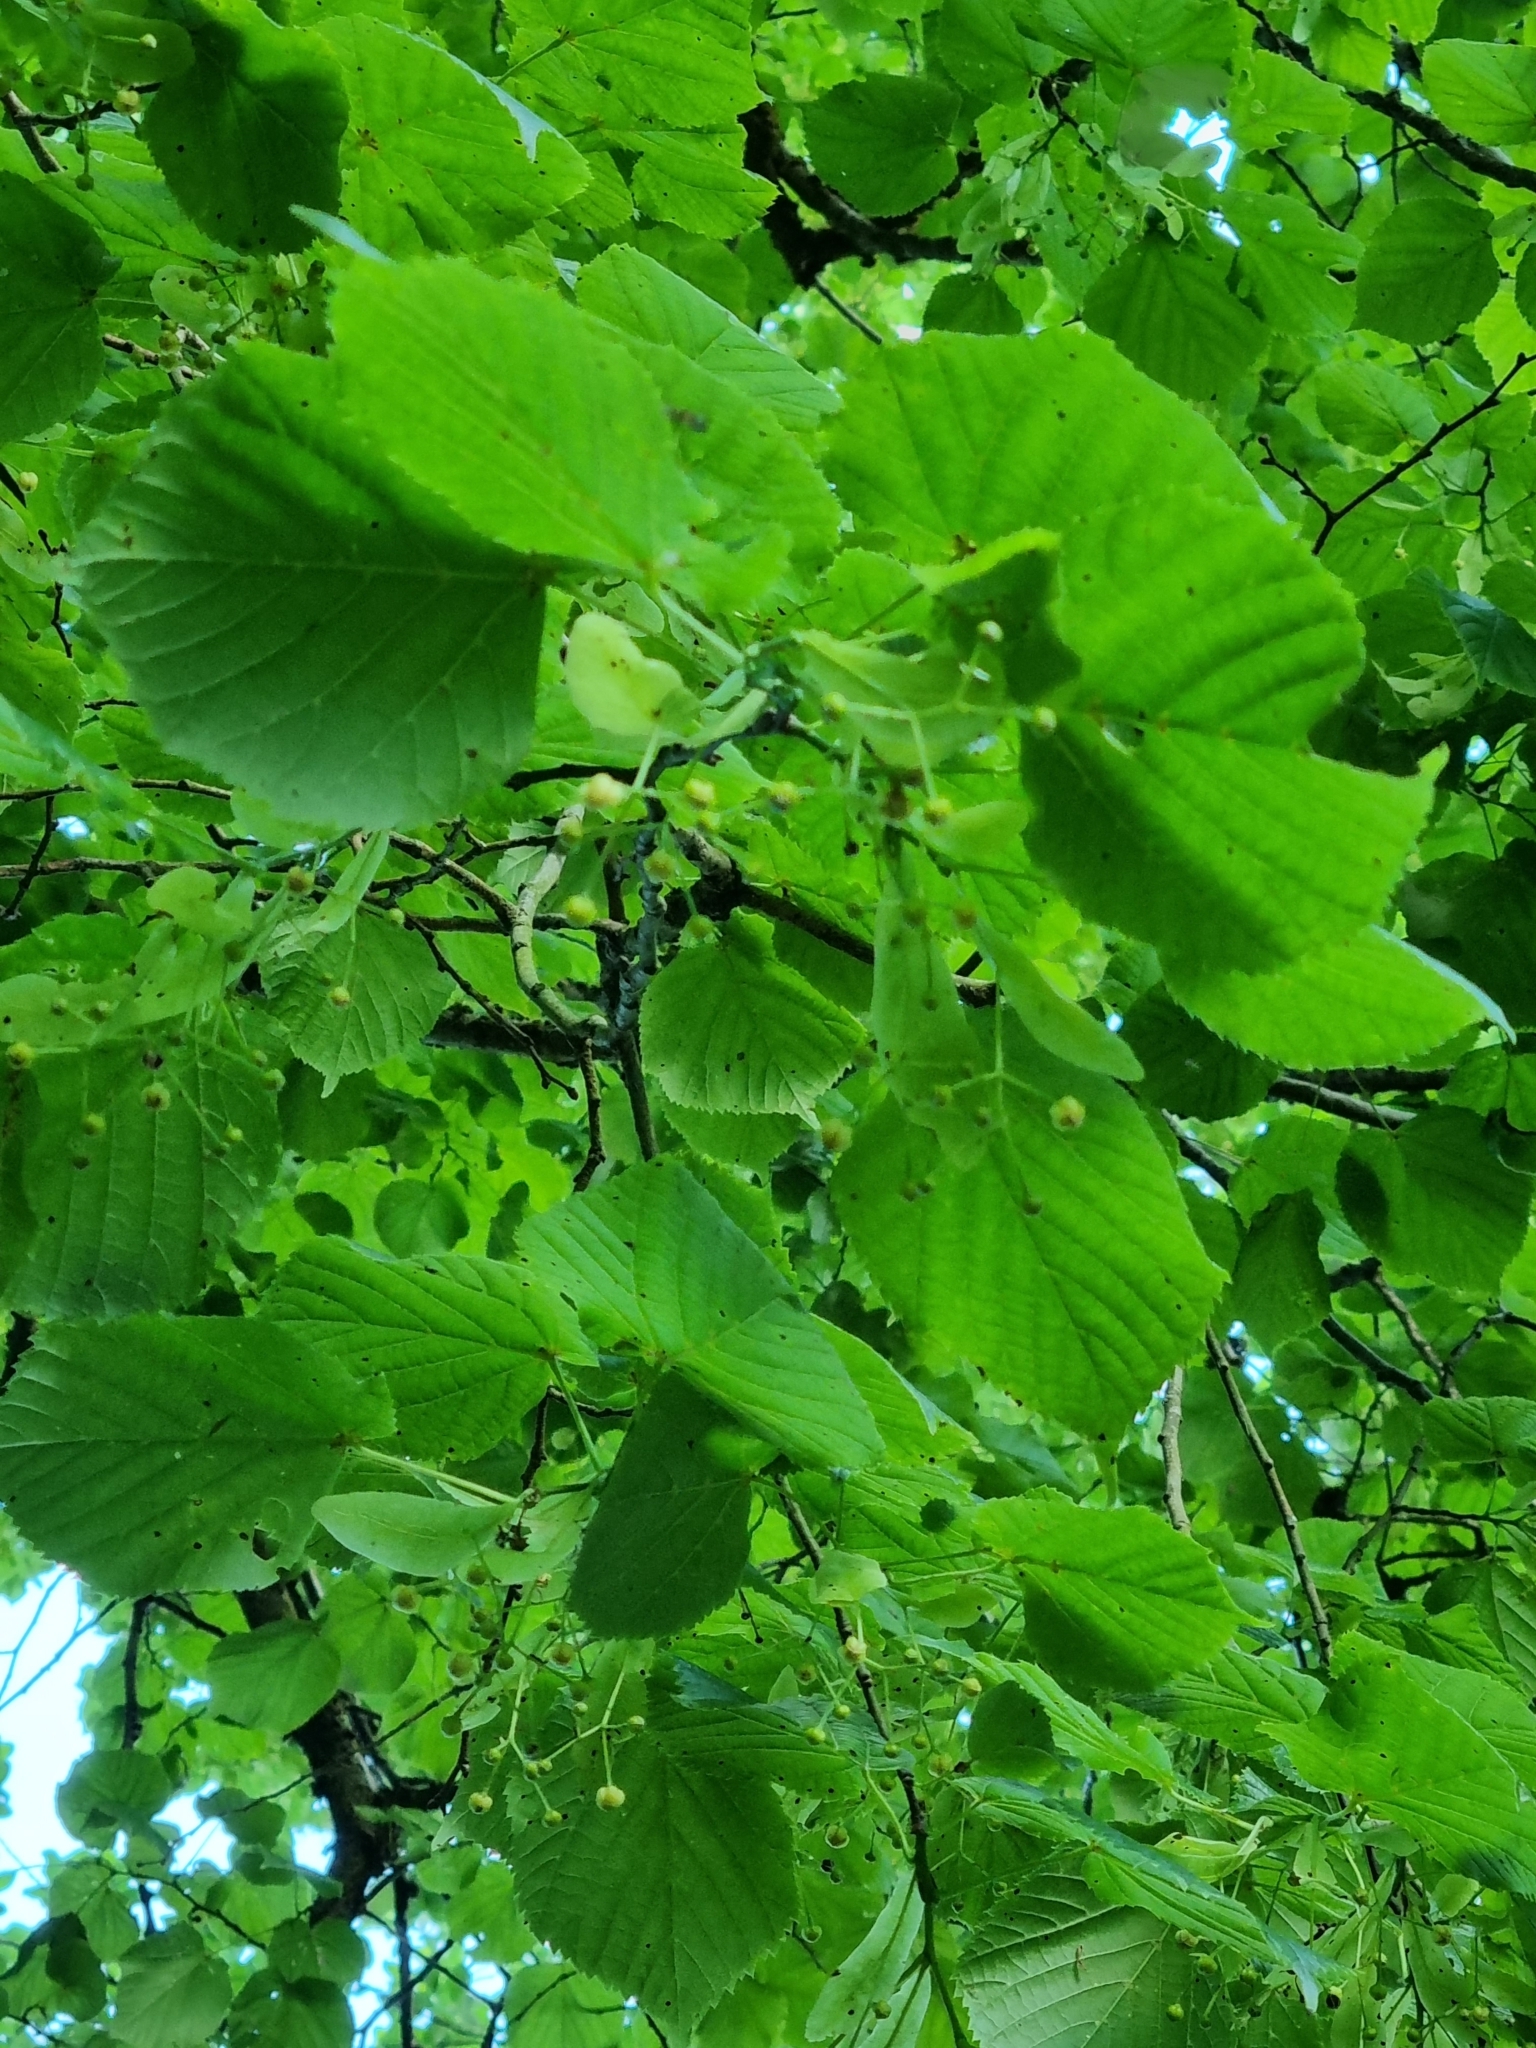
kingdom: Plantae
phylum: Tracheophyta
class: Magnoliopsida
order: Malvales
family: Malvaceae
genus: Tilia
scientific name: Tilia platyphyllos
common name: Large-leaved lime
